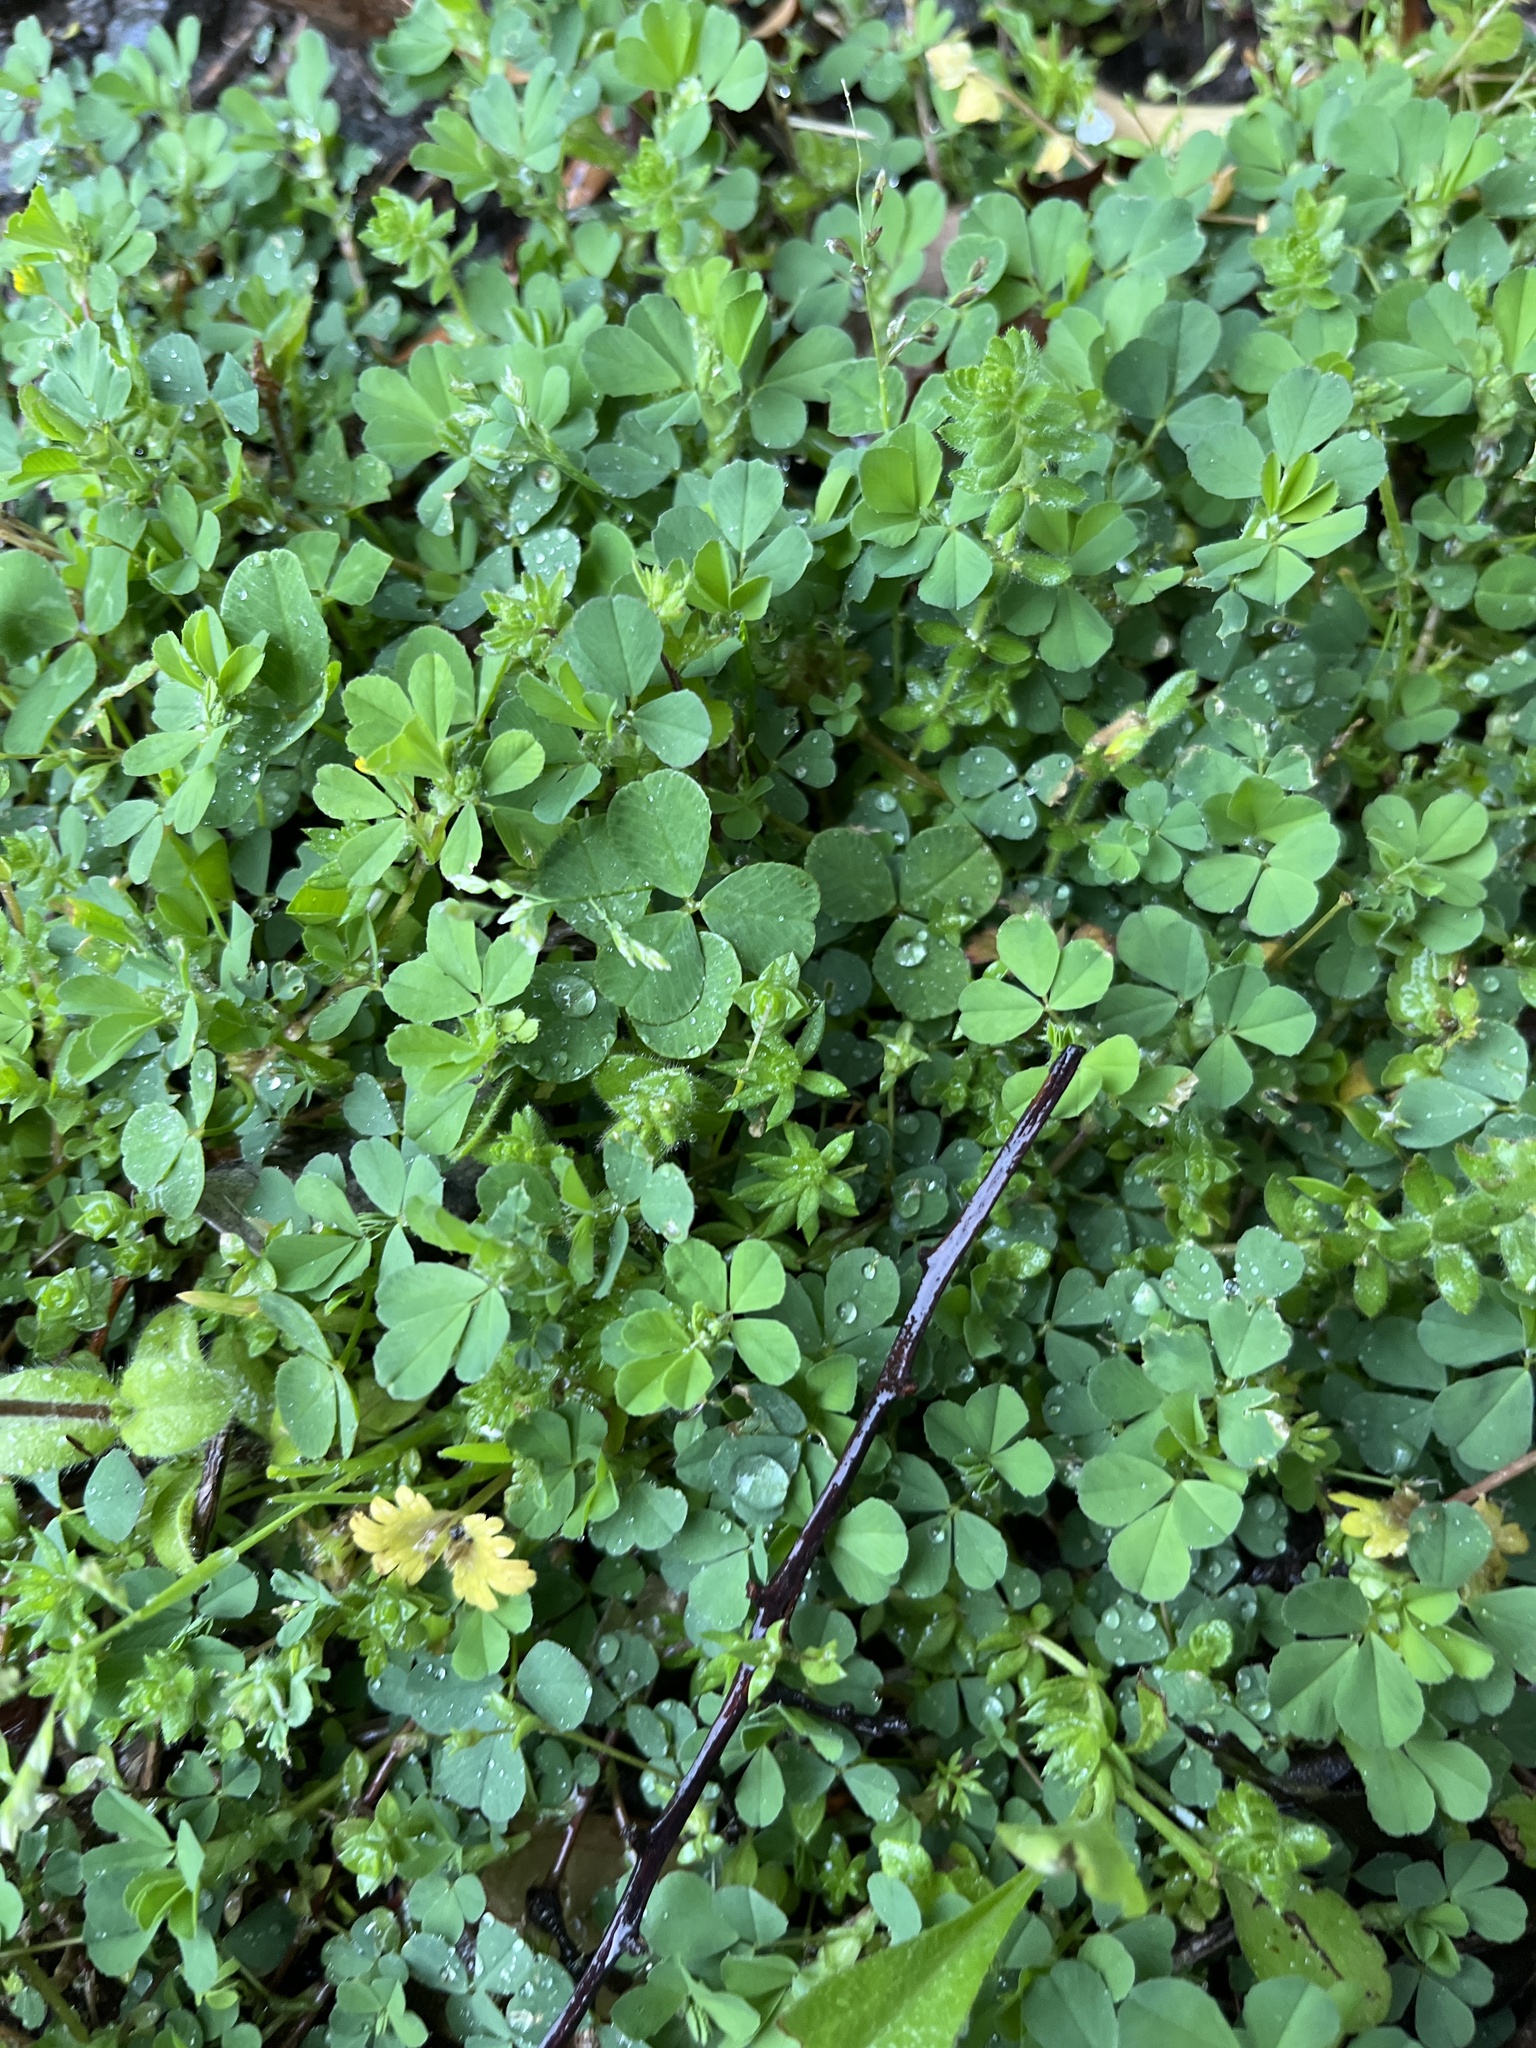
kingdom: Plantae
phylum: Tracheophyta
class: Magnoliopsida
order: Fabales
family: Fabaceae
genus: Trifolium
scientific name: Trifolium dubium
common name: Suckling clover
